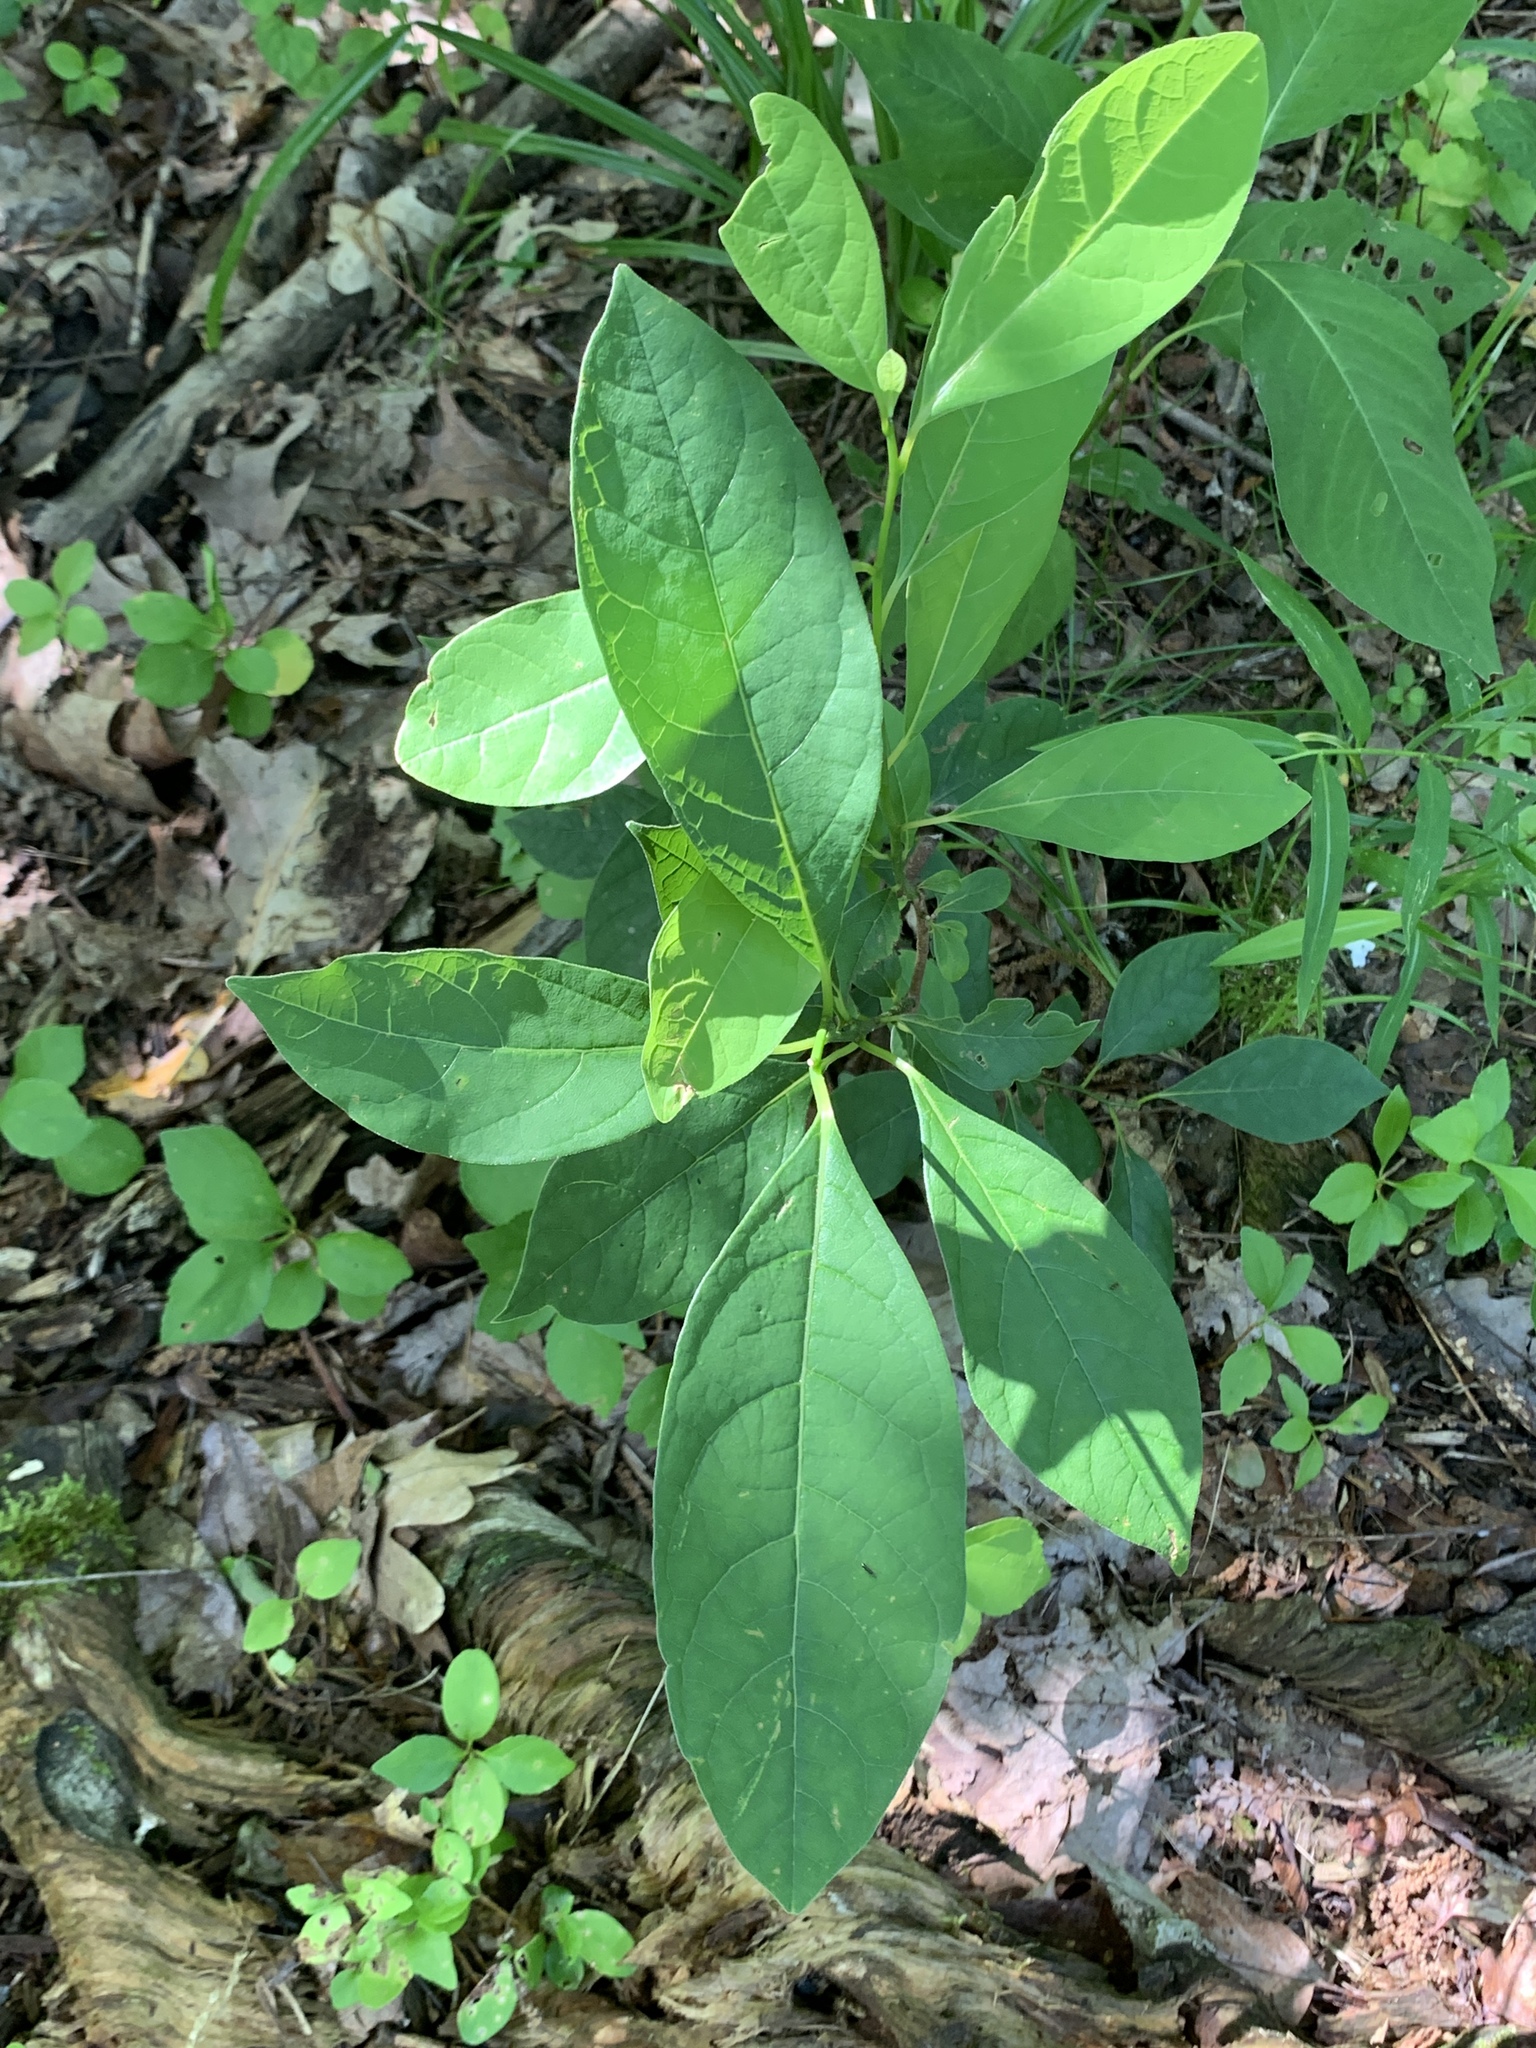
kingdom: Plantae
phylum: Tracheophyta
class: Magnoliopsida
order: Laurales
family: Lauraceae
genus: Lindera
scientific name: Lindera benzoin
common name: Spicebush
